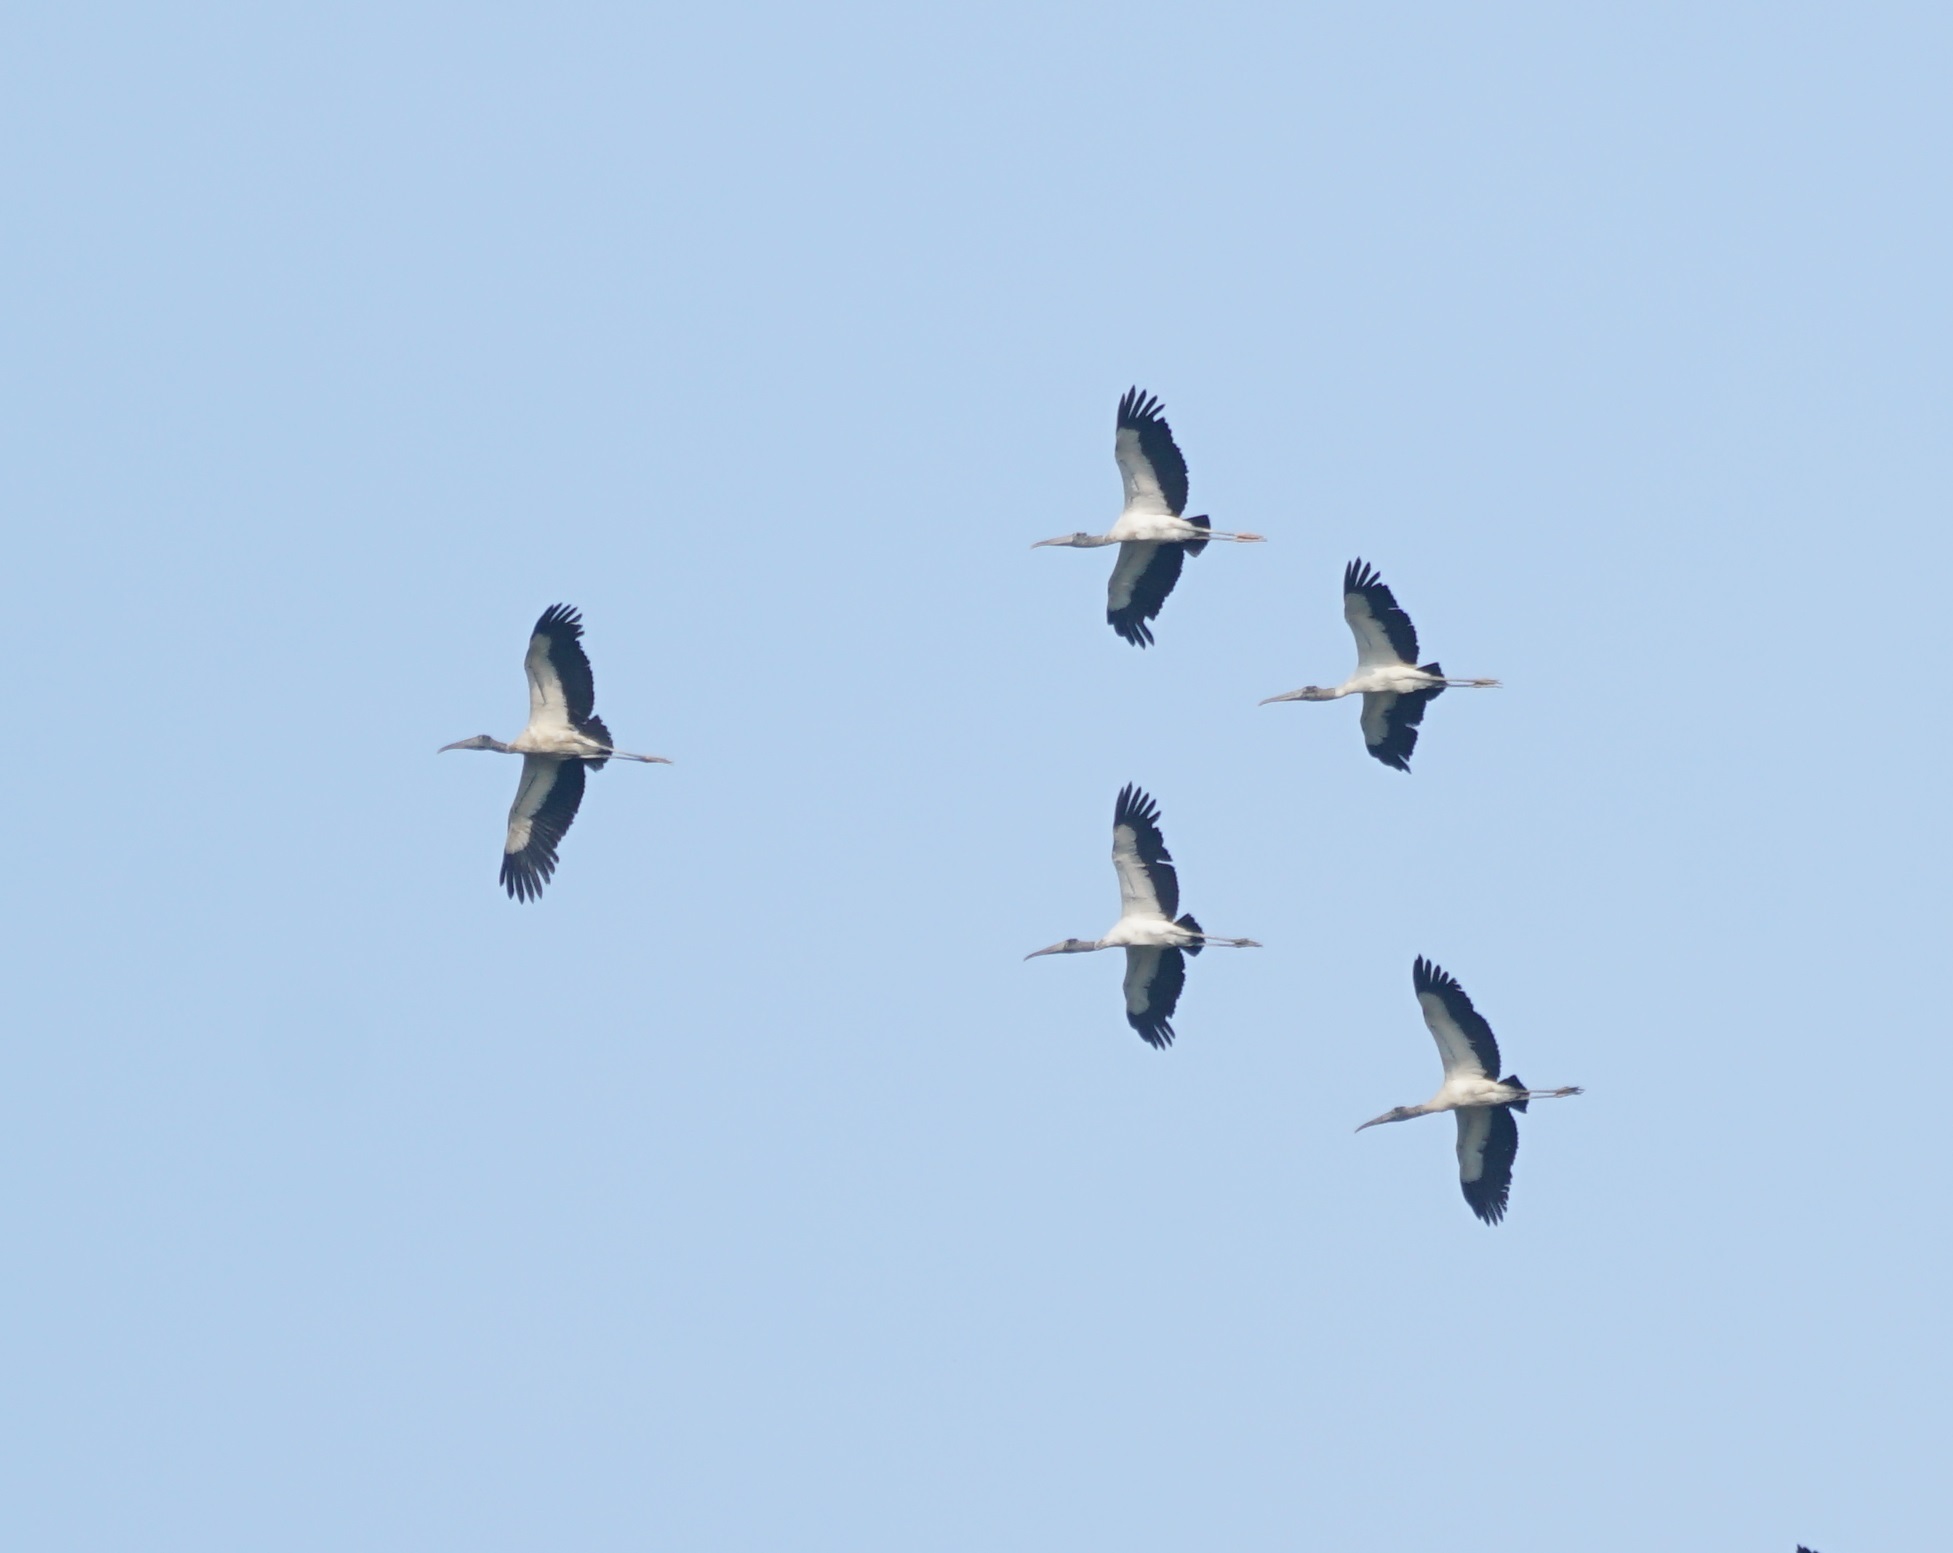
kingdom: Animalia
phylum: Chordata
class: Aves
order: Ciconiiformes
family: Ciconiidae
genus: Mycteria
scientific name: Mycteria americana
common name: Wood stork
